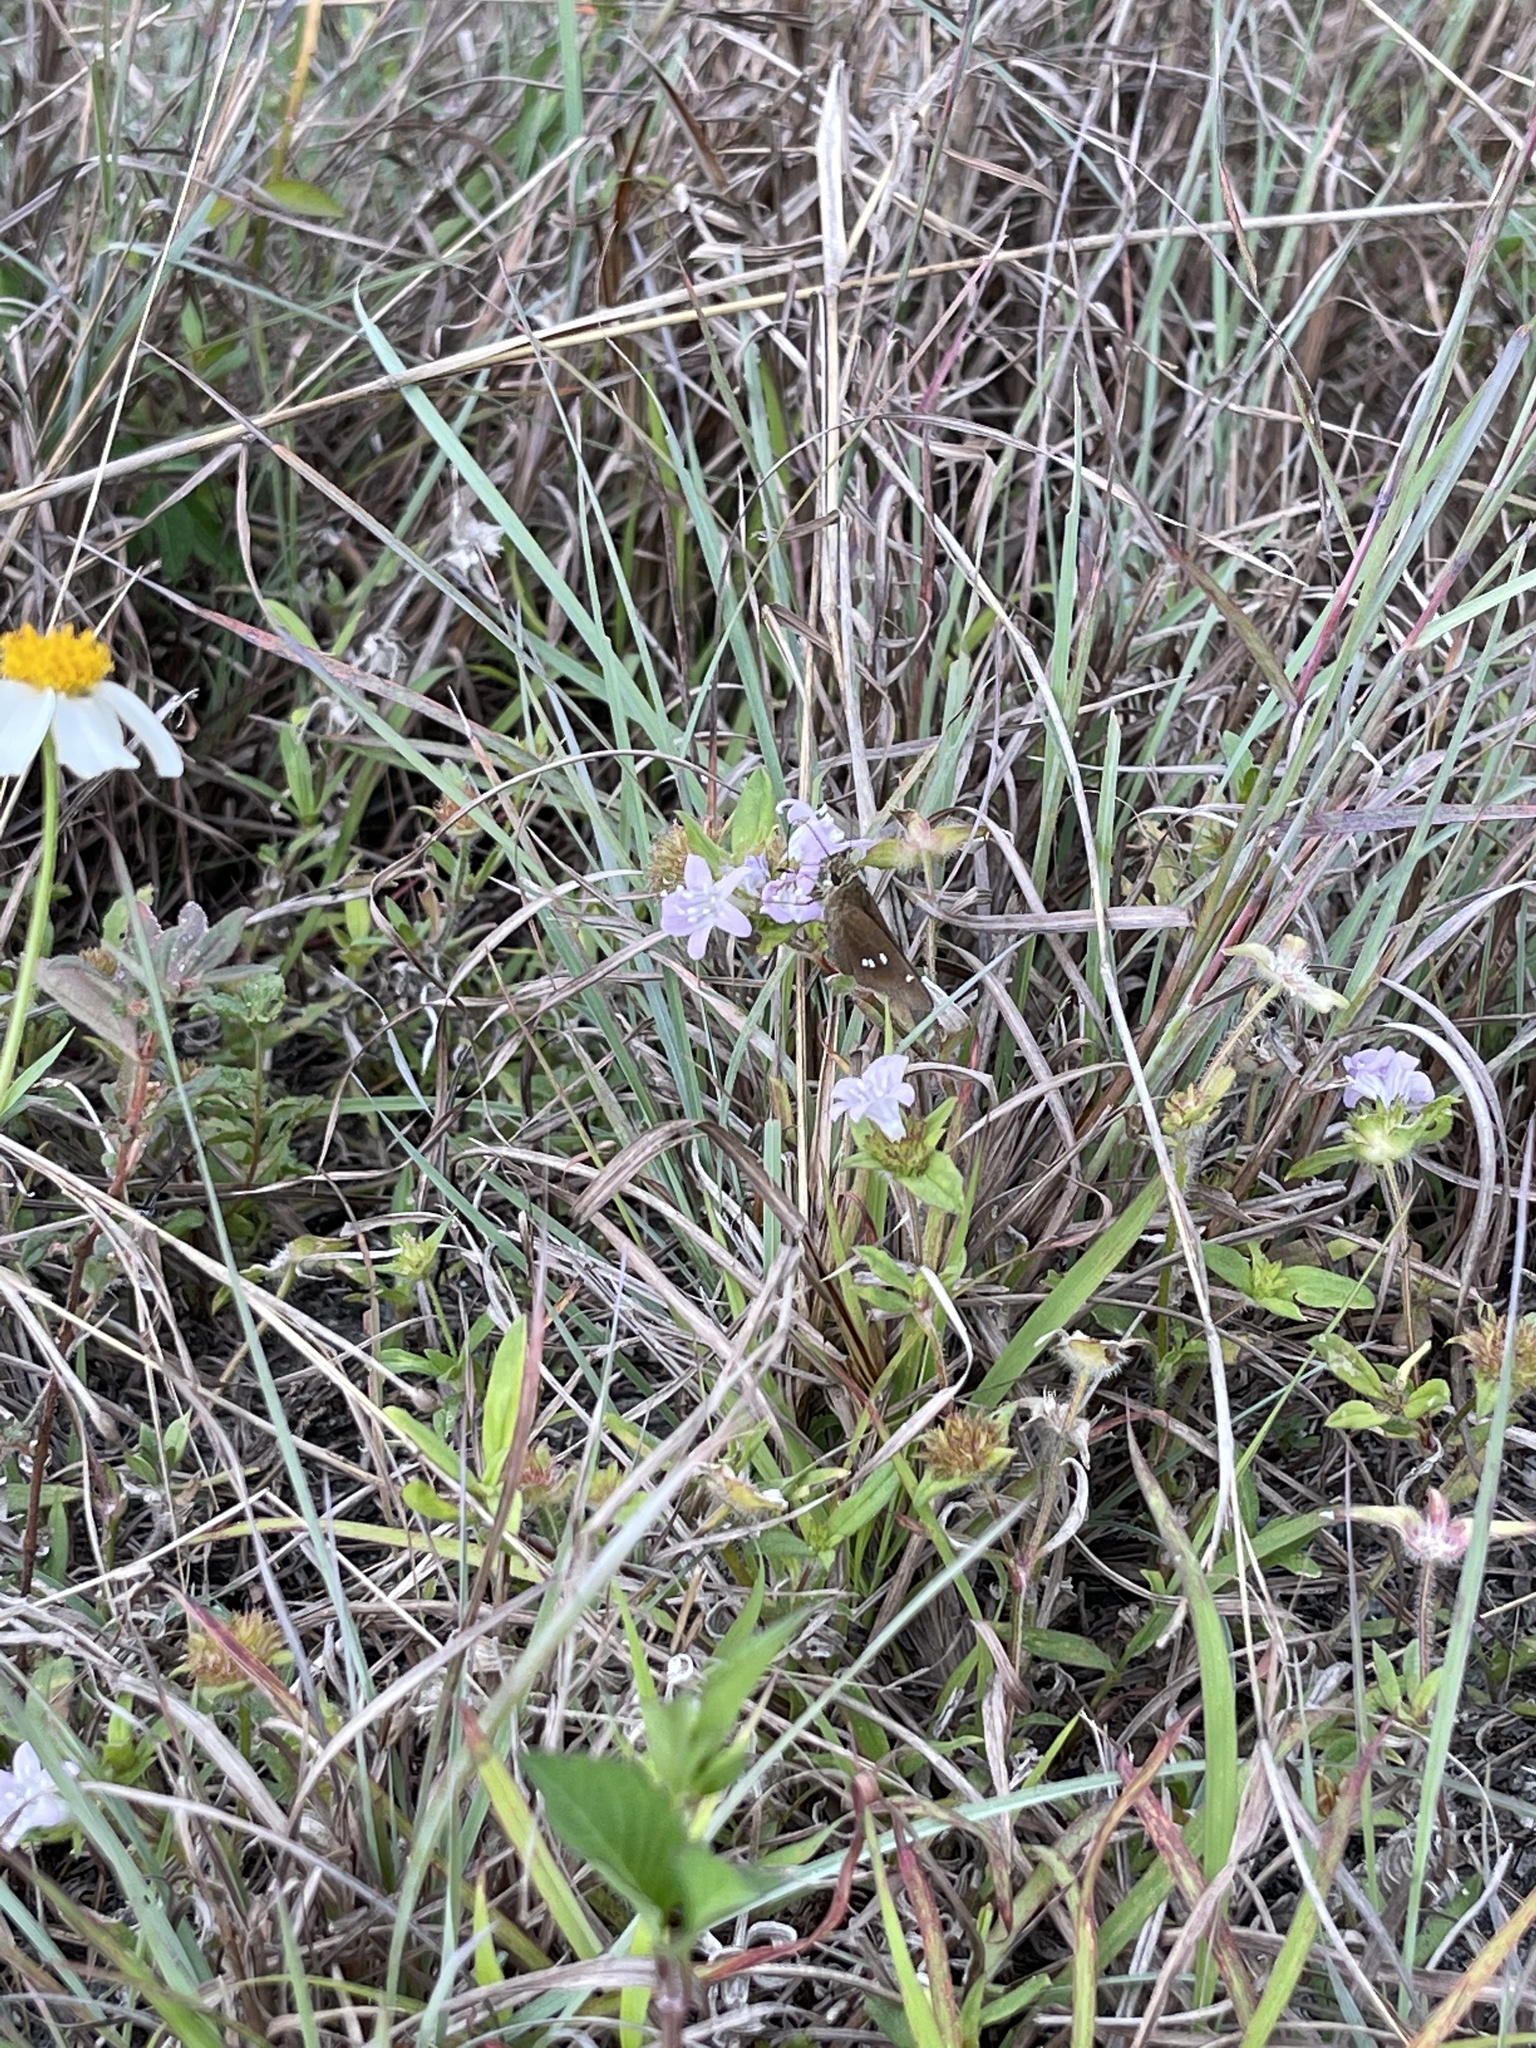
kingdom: Animalia
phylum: Arthropoda
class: Insecta
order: Lepidoptera
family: Hesperiidae
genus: Oligoria
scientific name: Oligoria maculata
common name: Twin-spot skipper
